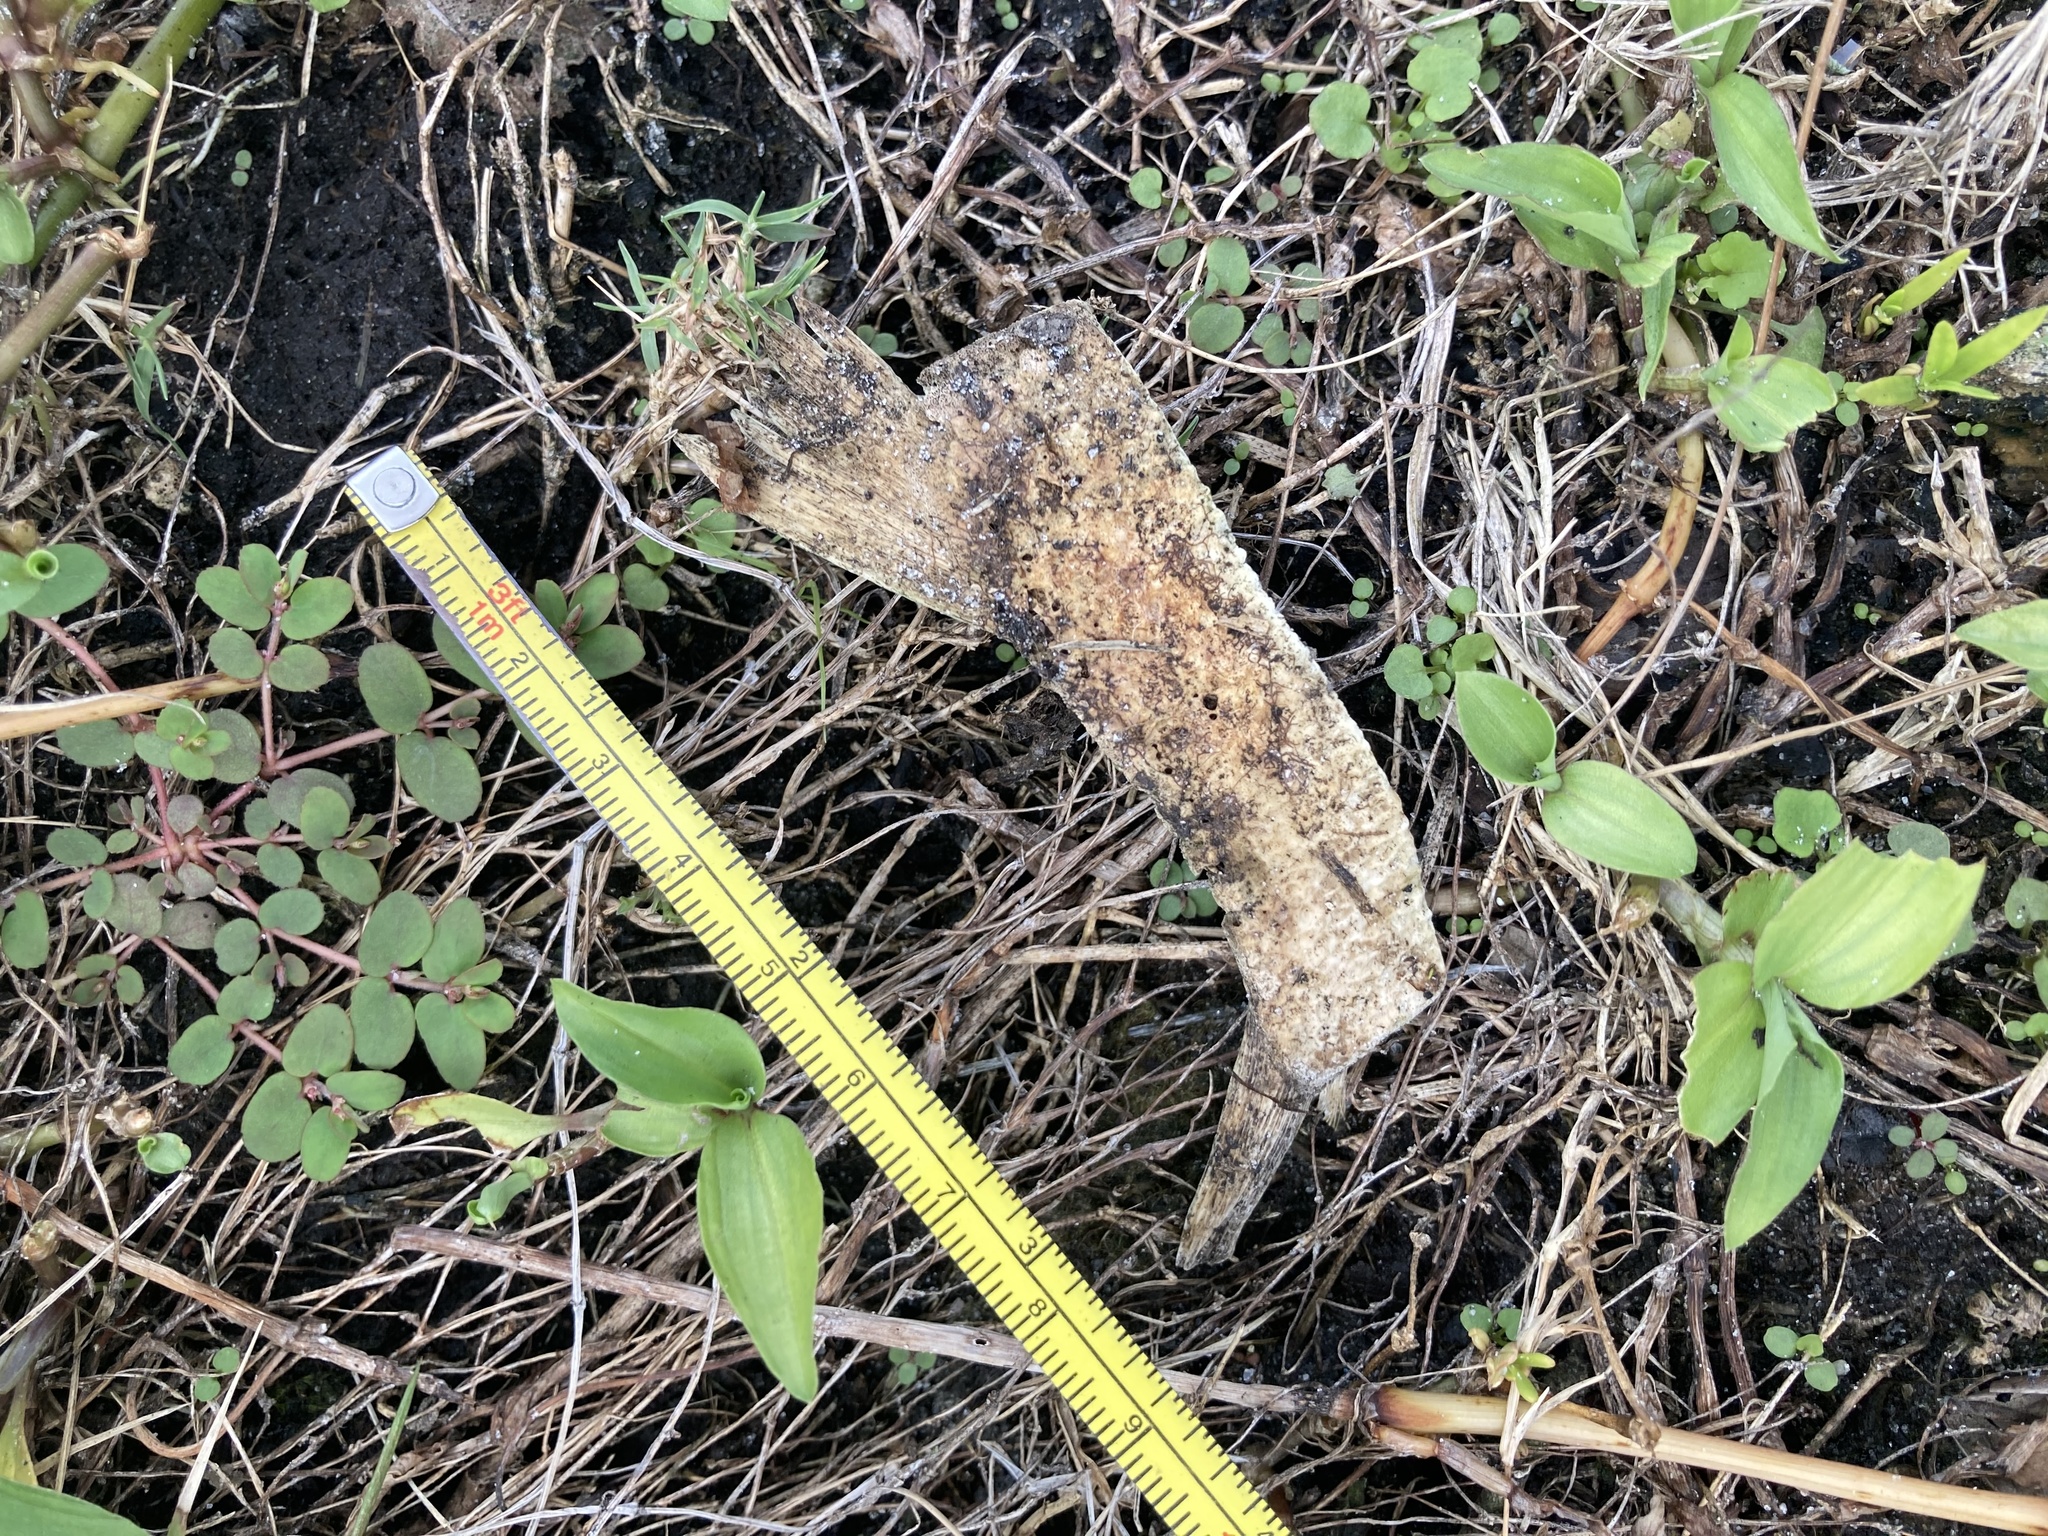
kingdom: Animalia
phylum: Chordata
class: Testudines
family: Trionychidae
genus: Apalone
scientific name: Apalone ferox
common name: Florida softshell turtle
